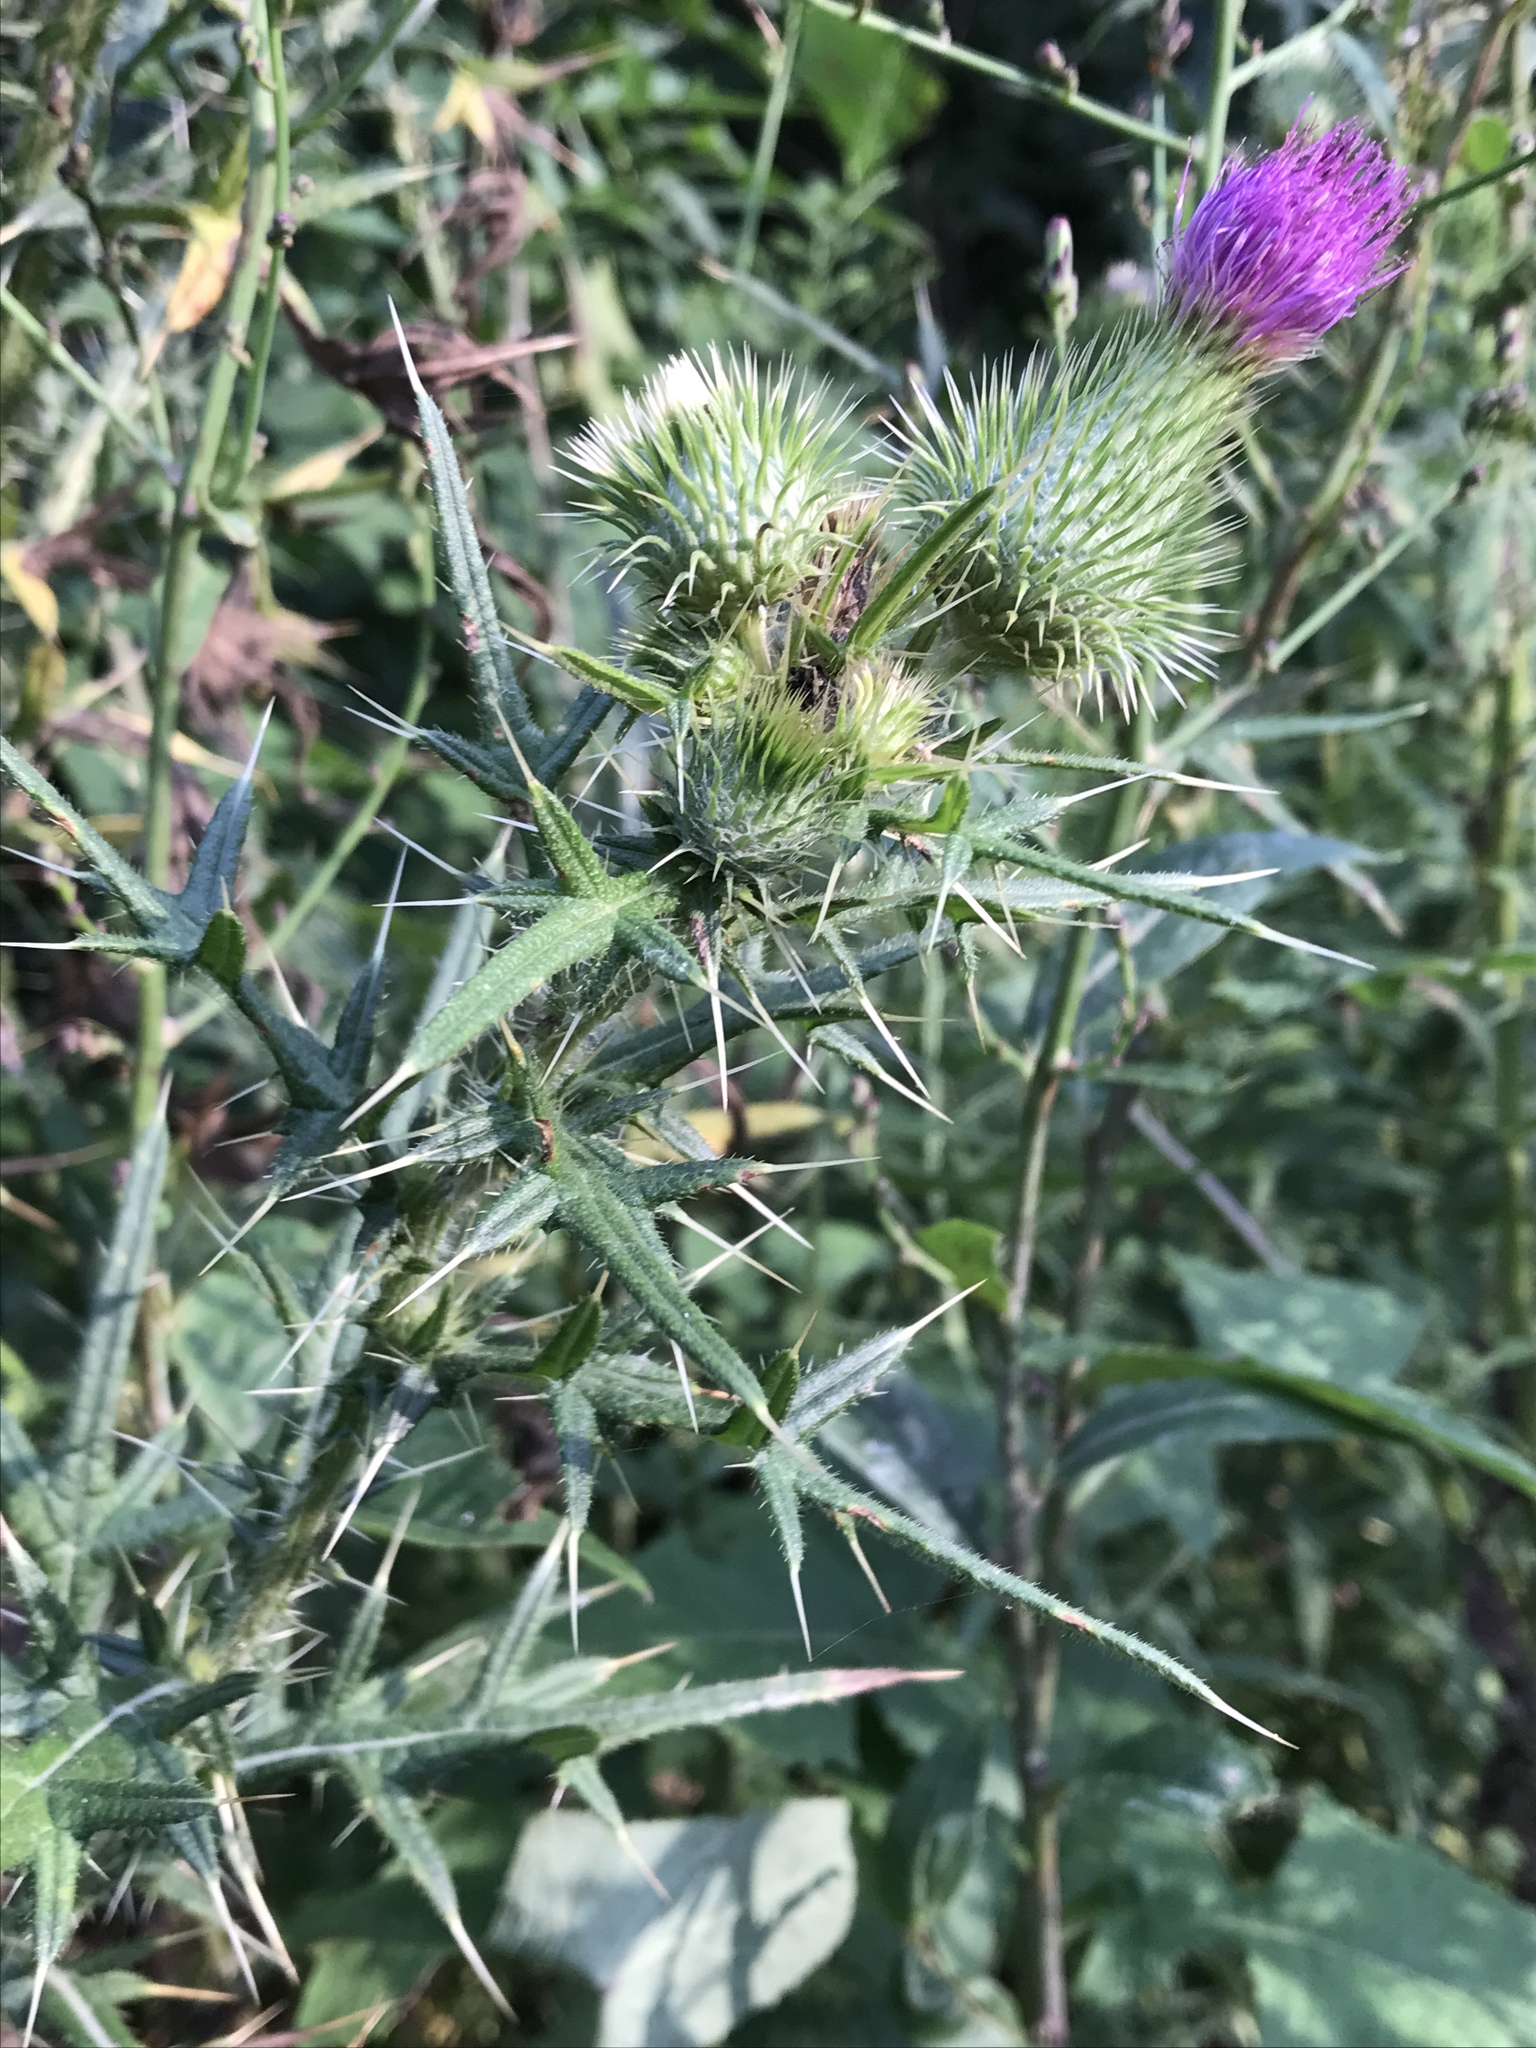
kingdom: Plantae
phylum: Tracheophyta
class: Magnoliopsida
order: Asterales
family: Asteraceae
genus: Cirsium
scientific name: Cirsium vulgare
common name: Bull thistle
